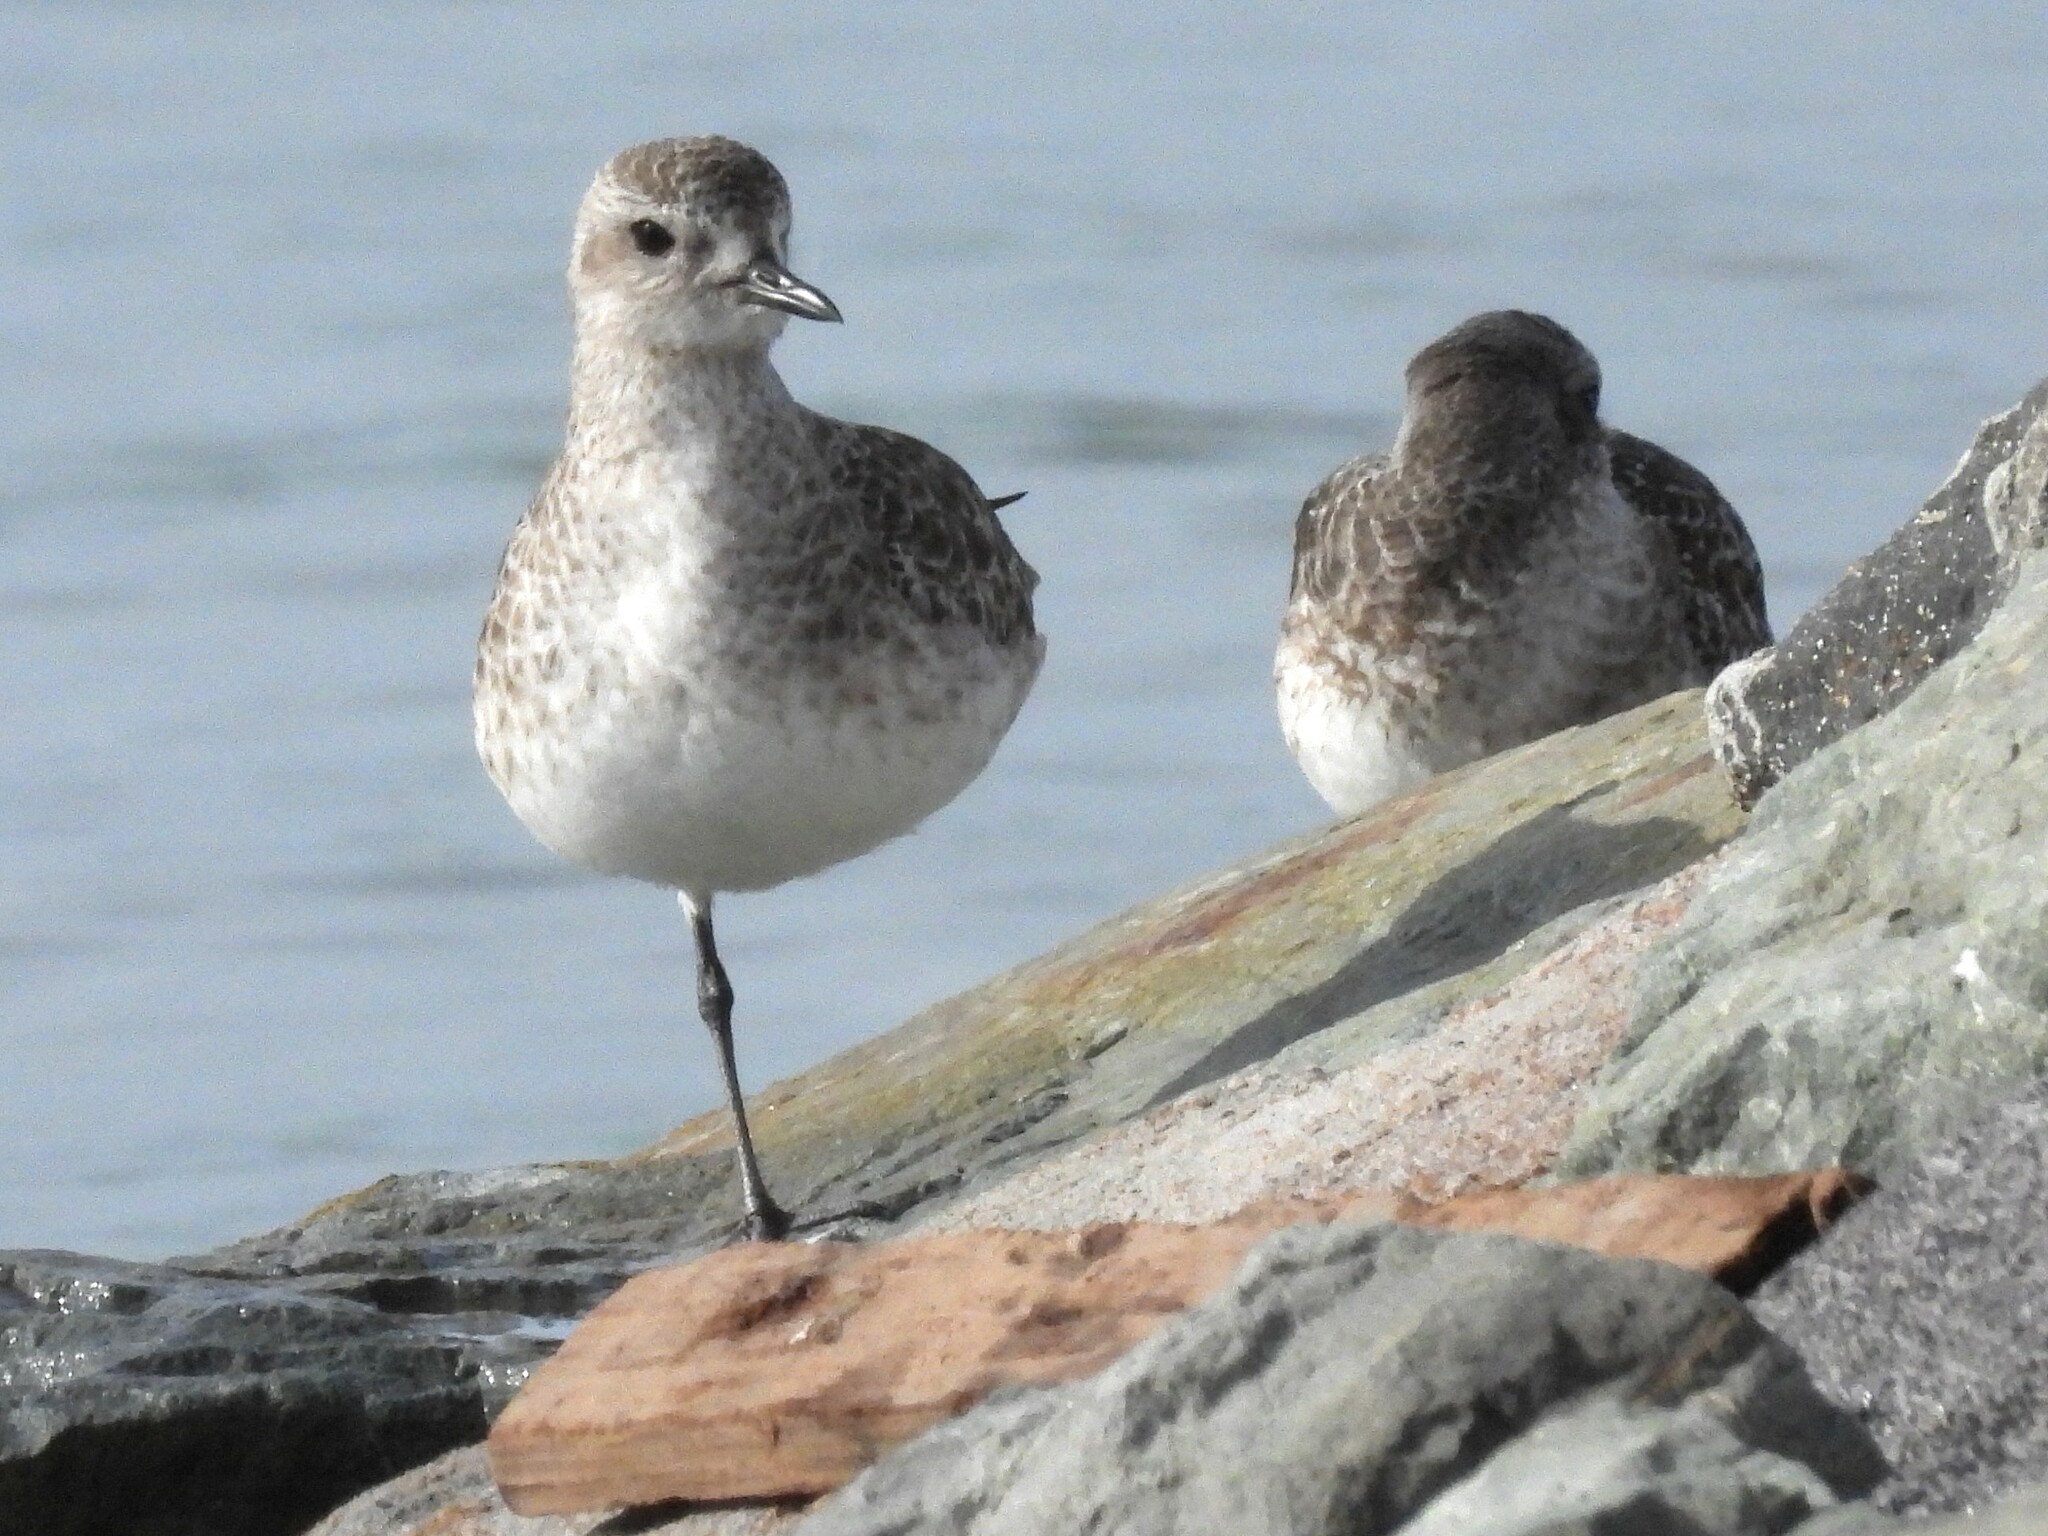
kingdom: Animalia
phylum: Chordata
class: Aves
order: Charadriiformes
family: Charadriidae
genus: Pluvialis
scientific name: Pluvialis squatarola
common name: Grey plover
